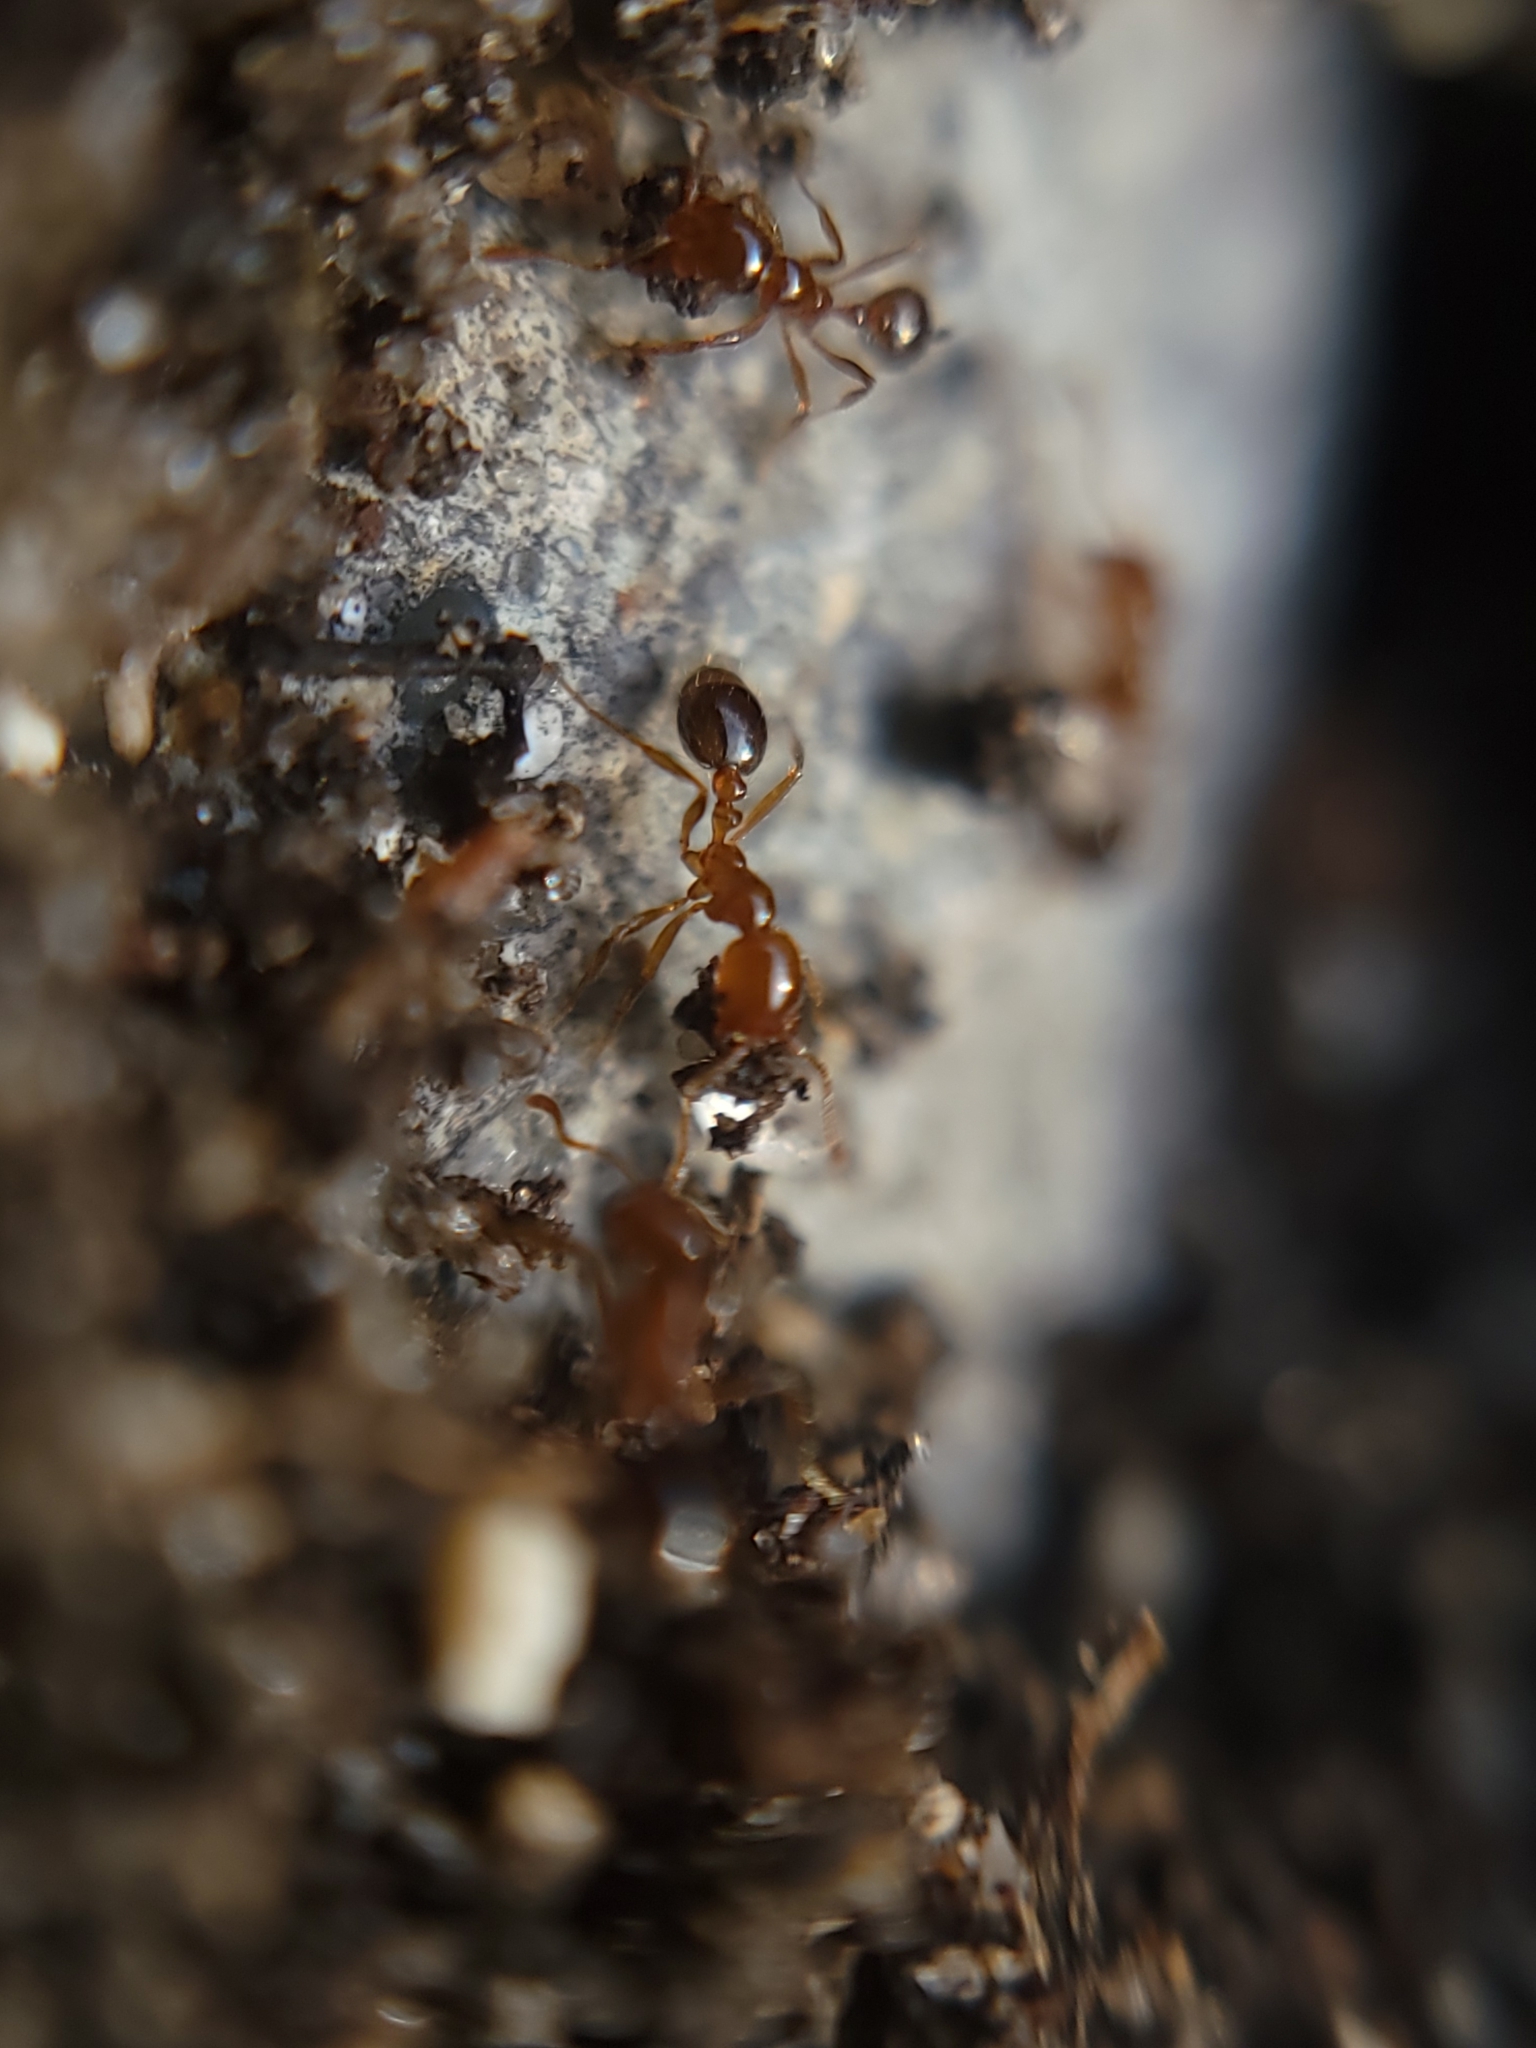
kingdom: Animalia
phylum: Arthropoda
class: Insecta
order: Hymenoptera
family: Formicidae
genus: Solenopsis
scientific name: Solenopsis invicta
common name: Red imported fire ant
